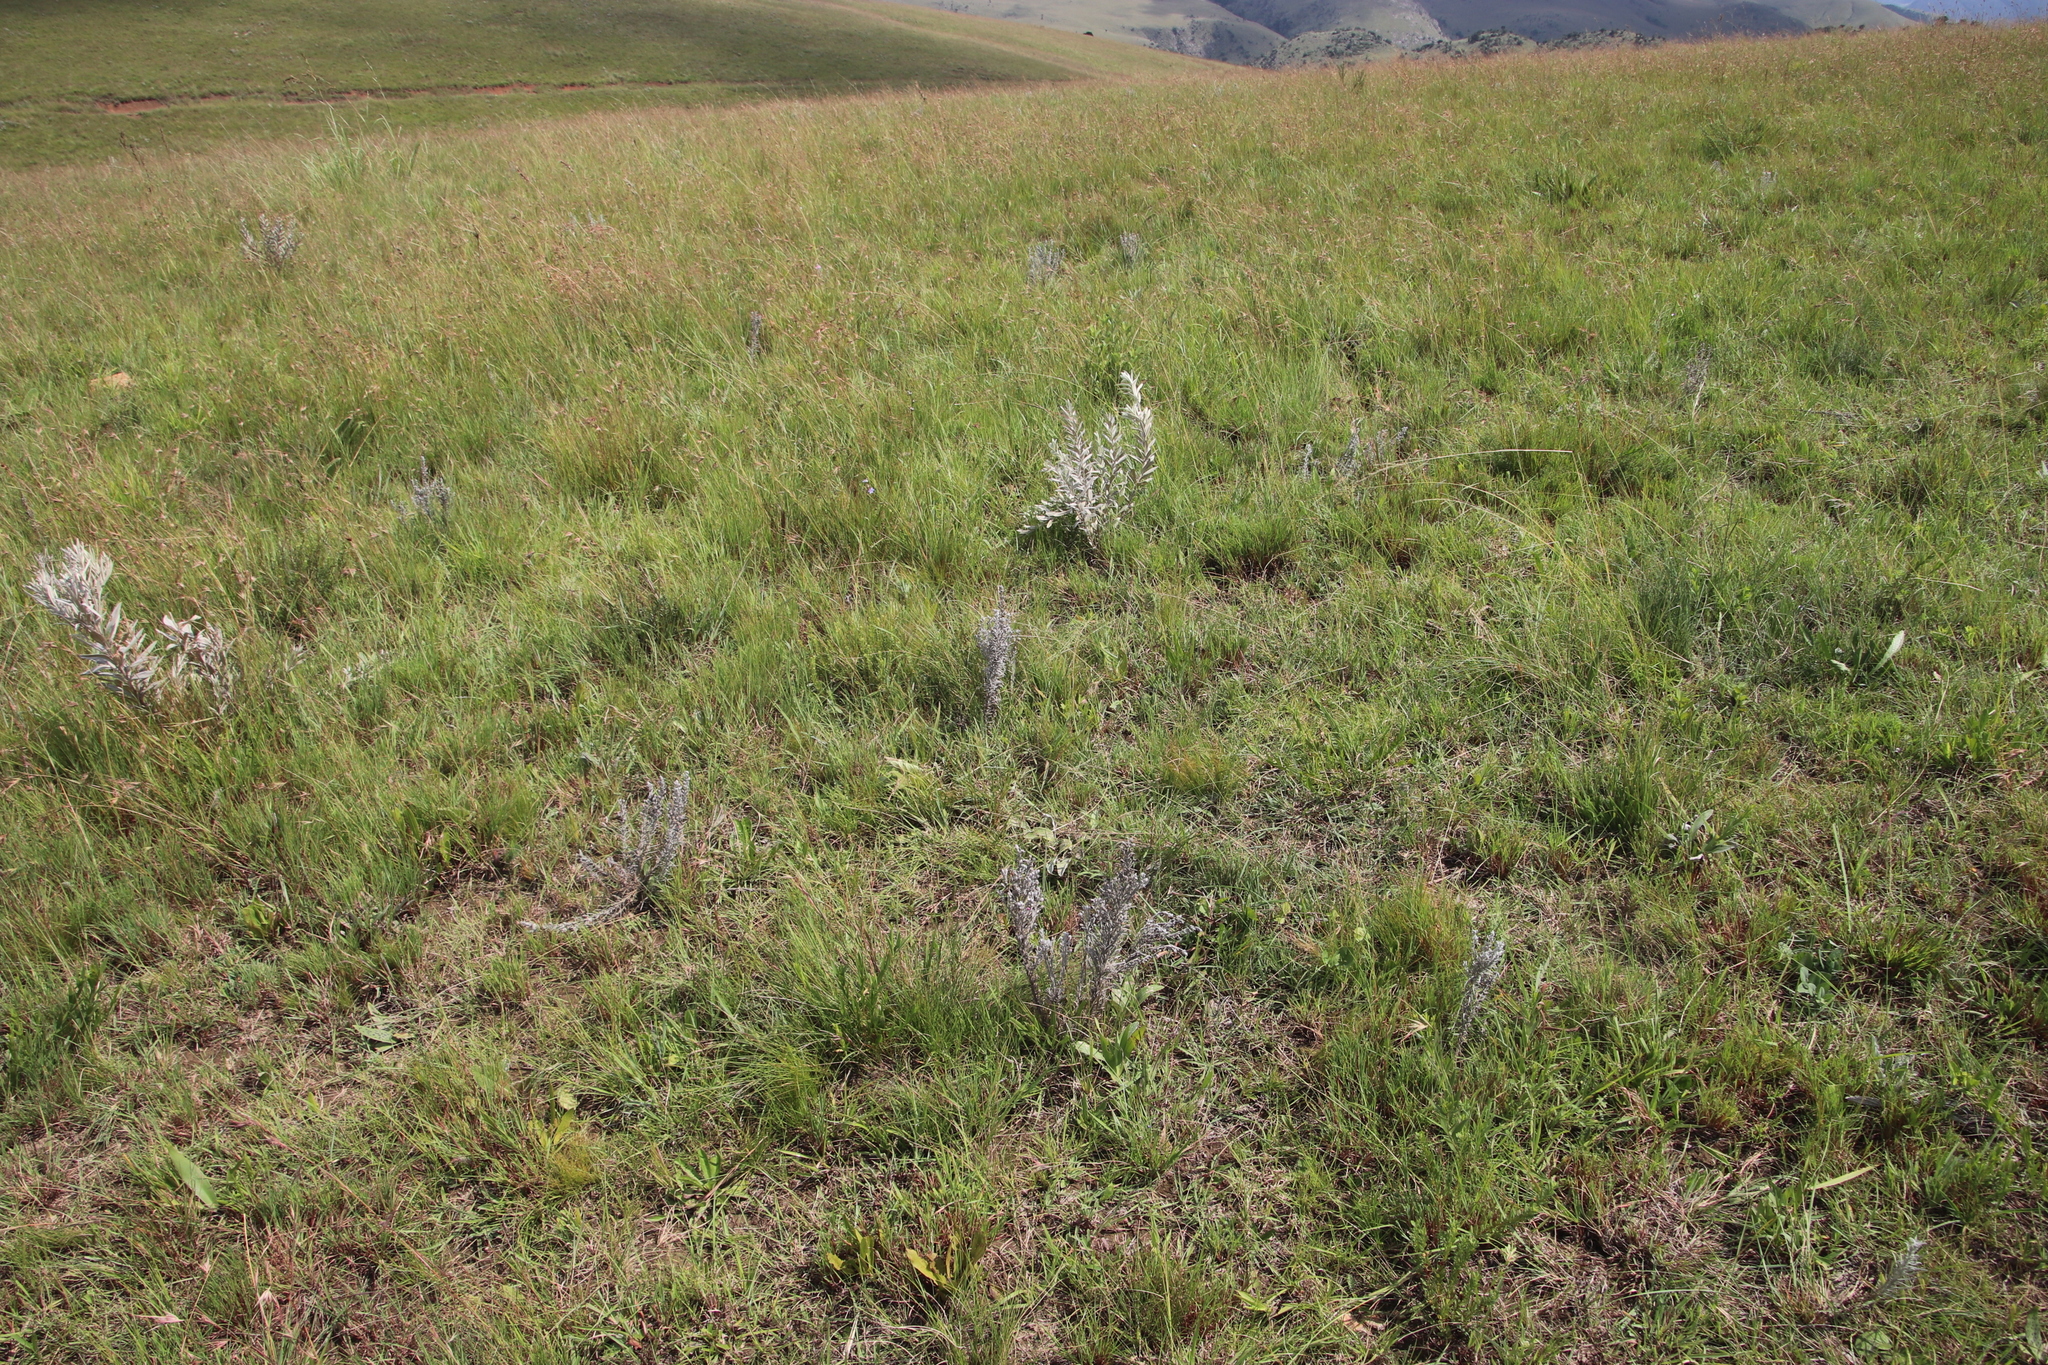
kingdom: Plantae
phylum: Tracheophyta
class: Magnoliopsida
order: Lamiales
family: Orobanchaceae
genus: Sopubia
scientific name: Sopubia cana
